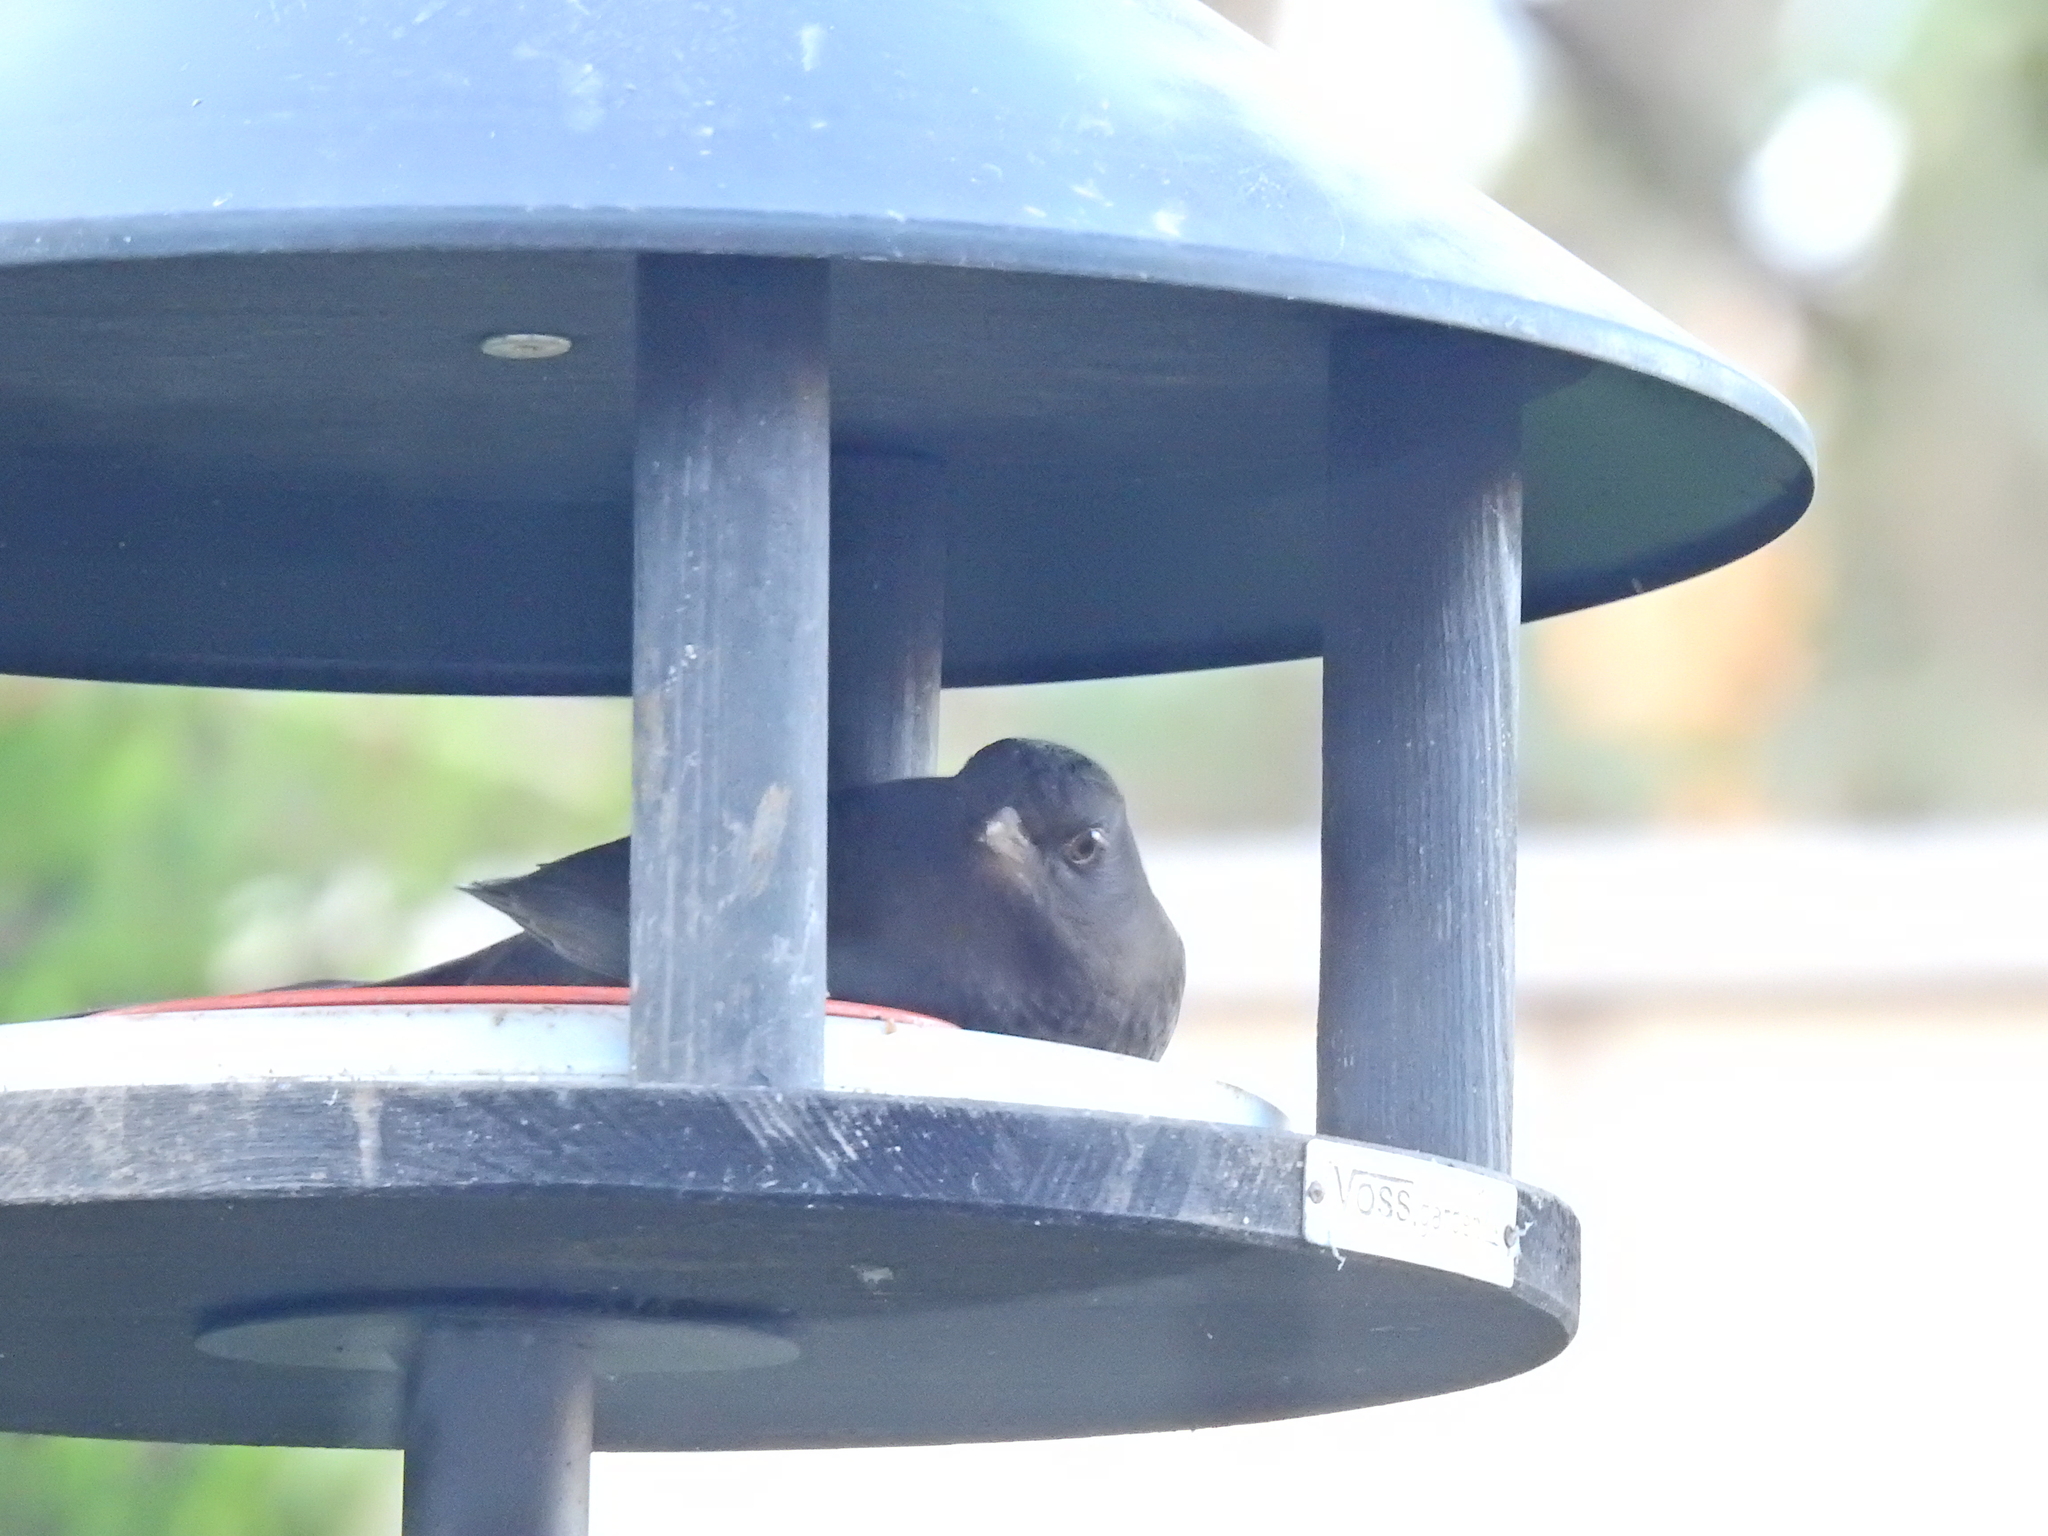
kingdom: Animalia
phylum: Chordata
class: Aves
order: Passeriformes
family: Turdidae
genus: Turdus
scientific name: Turdus merula
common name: Common blackbird
